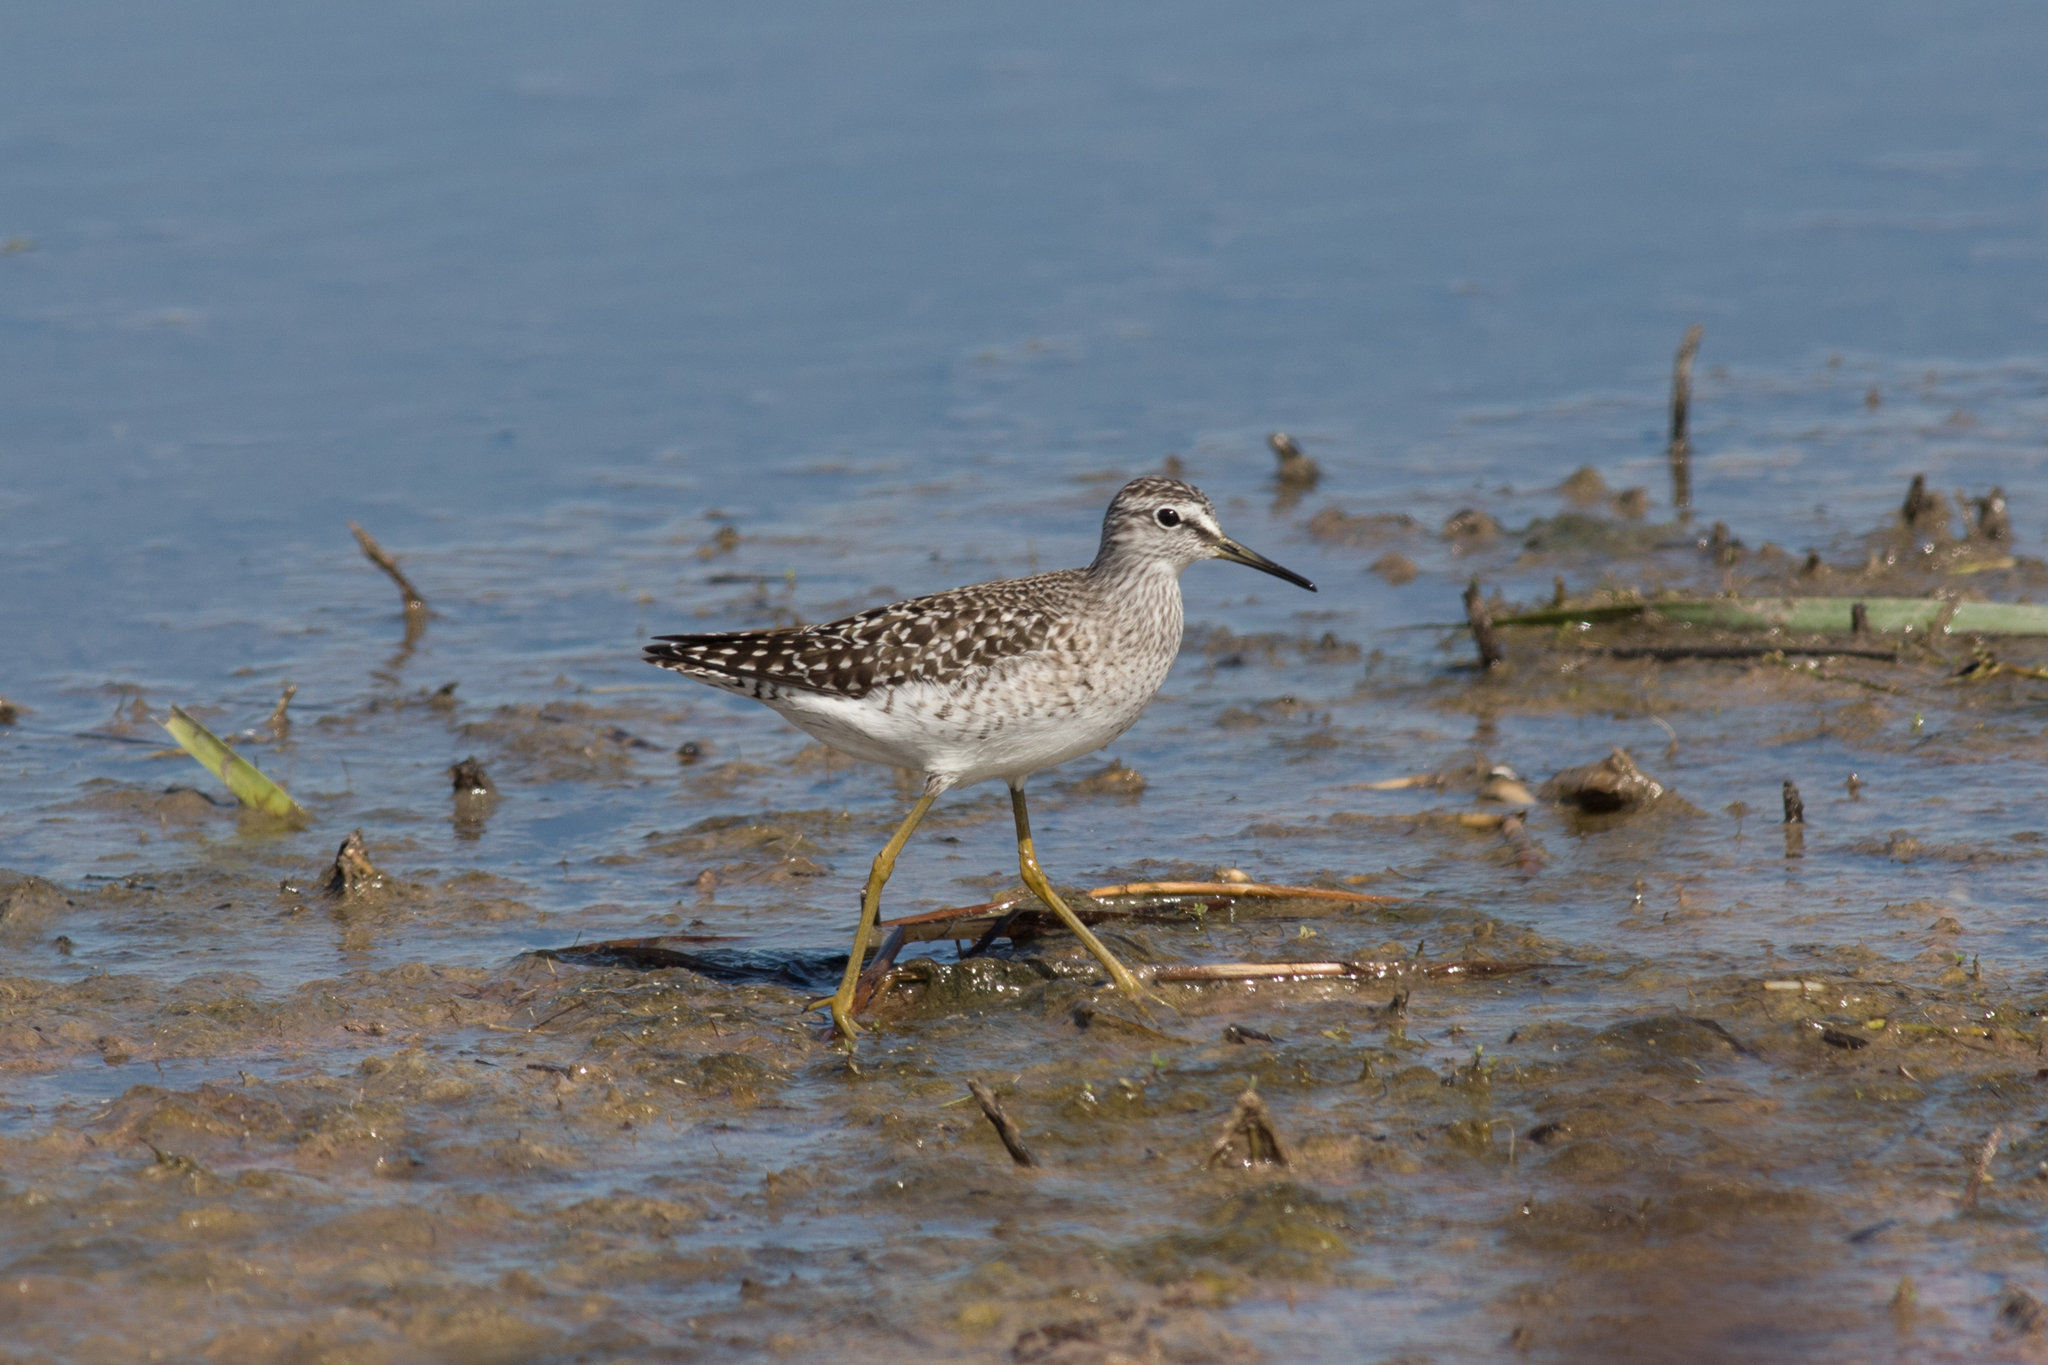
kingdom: Animalia
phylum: Chordata
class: Aves
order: Charadriiformes
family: Scolopacidae
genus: Tringa
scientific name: Tringa glareola
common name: Wood sandpiper
